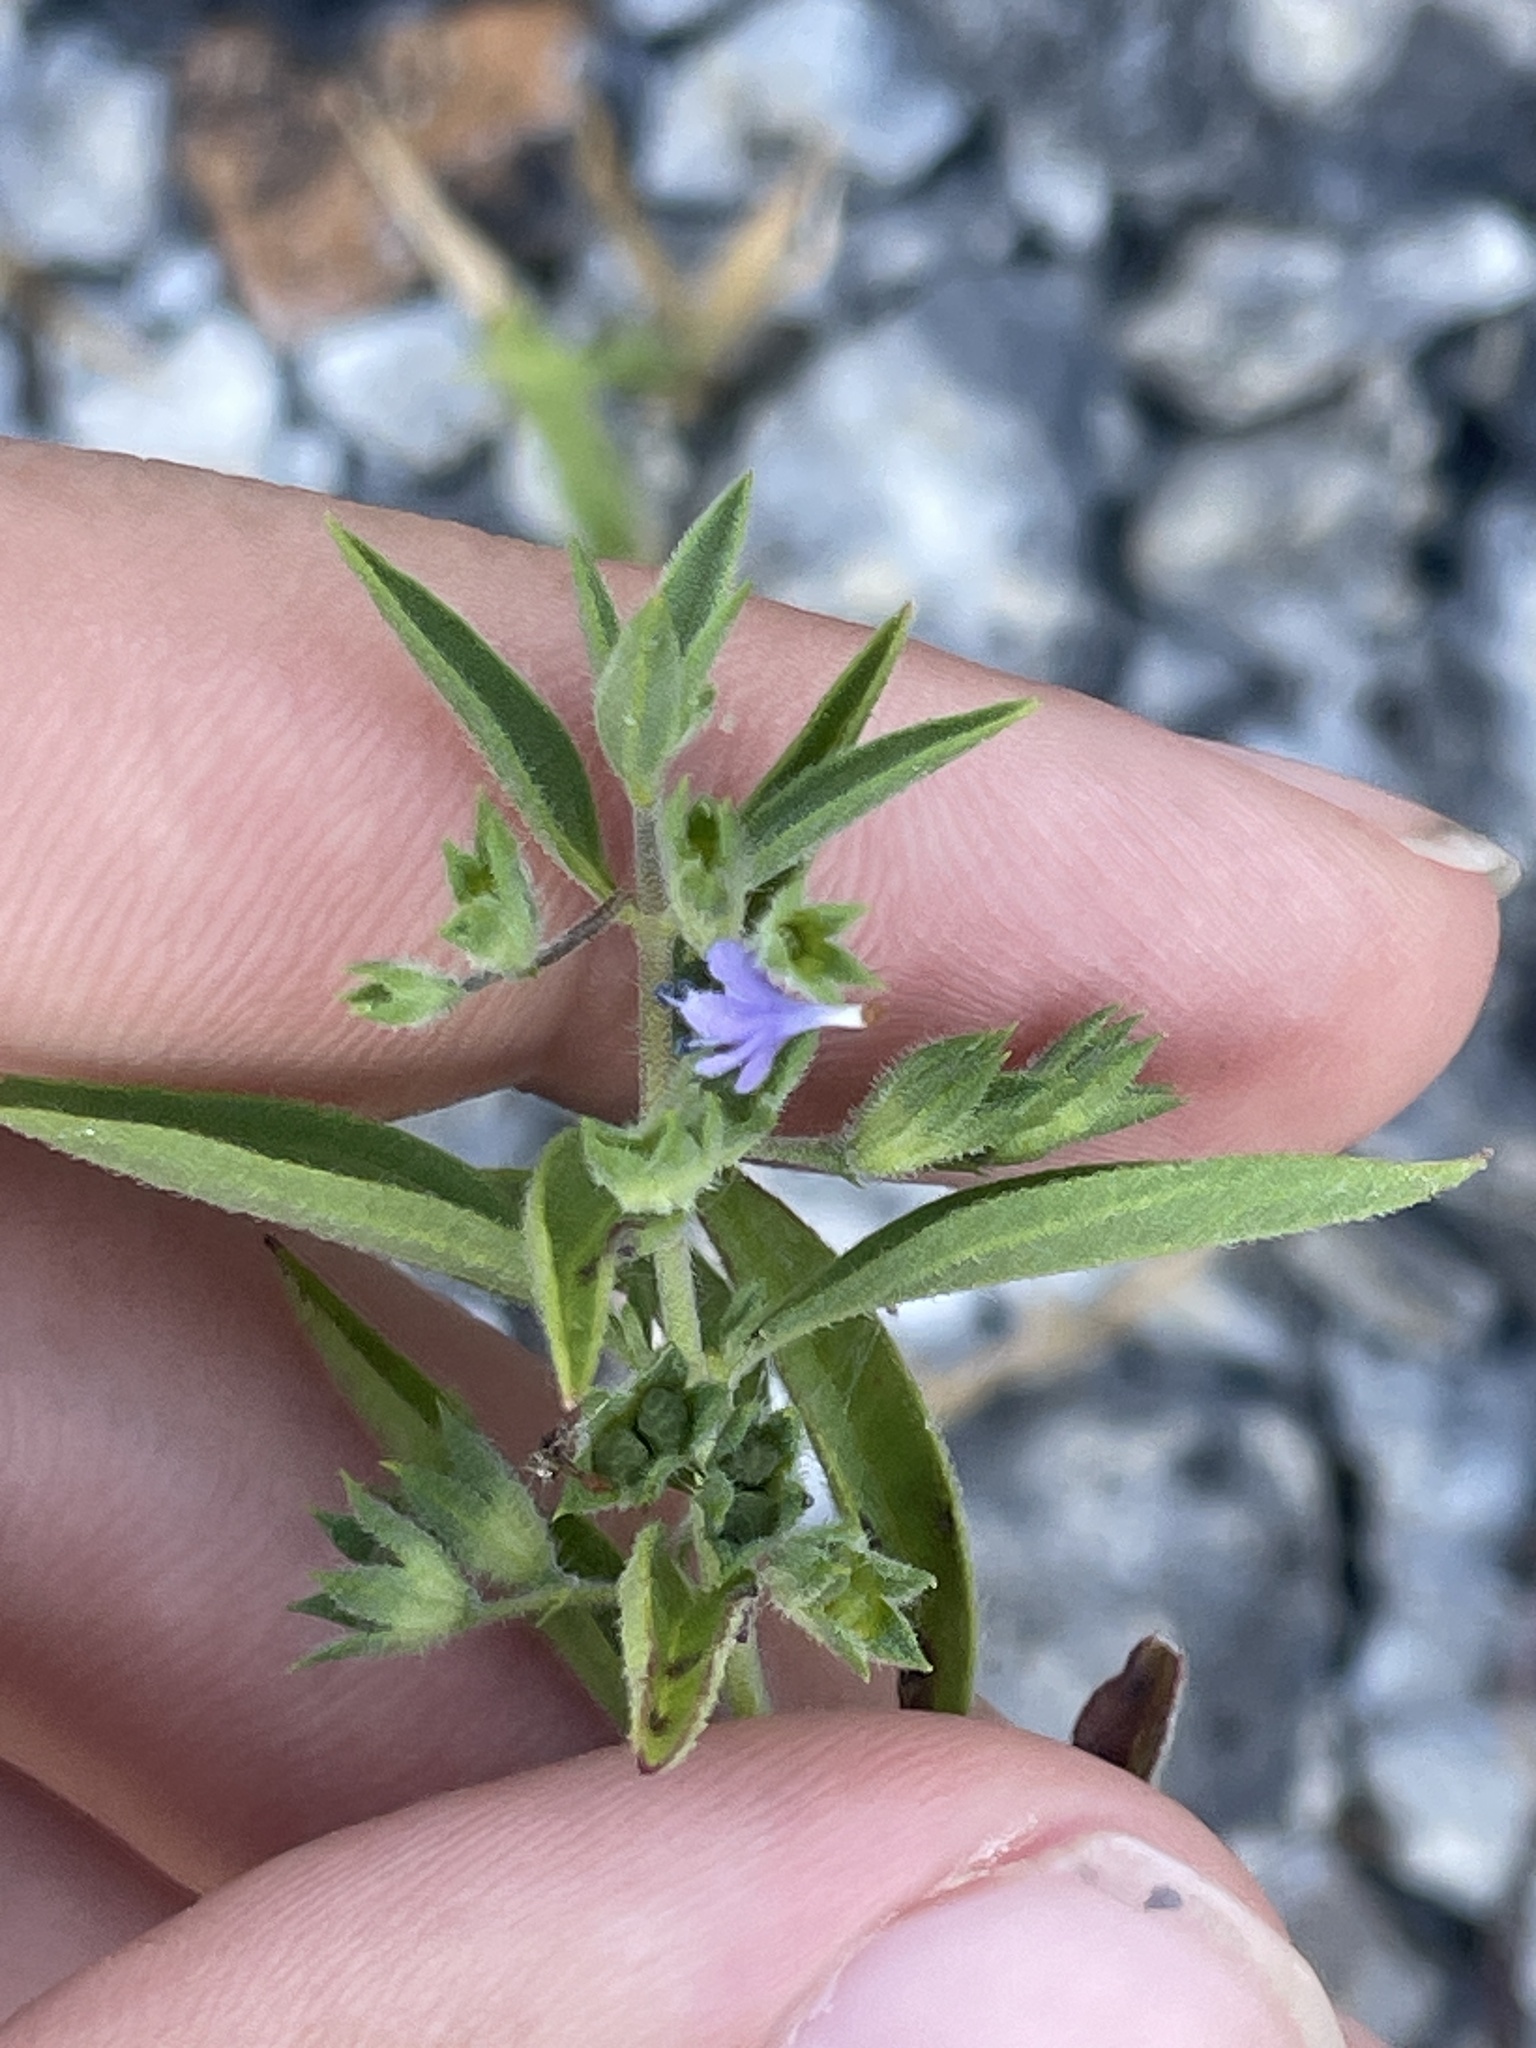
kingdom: Plantae
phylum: Tracheophyta
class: Magnoliopsida
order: Lamiales
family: Lamiaceae
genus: Trichostema
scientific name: Trichostema brachiatum
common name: False pennyroyal
